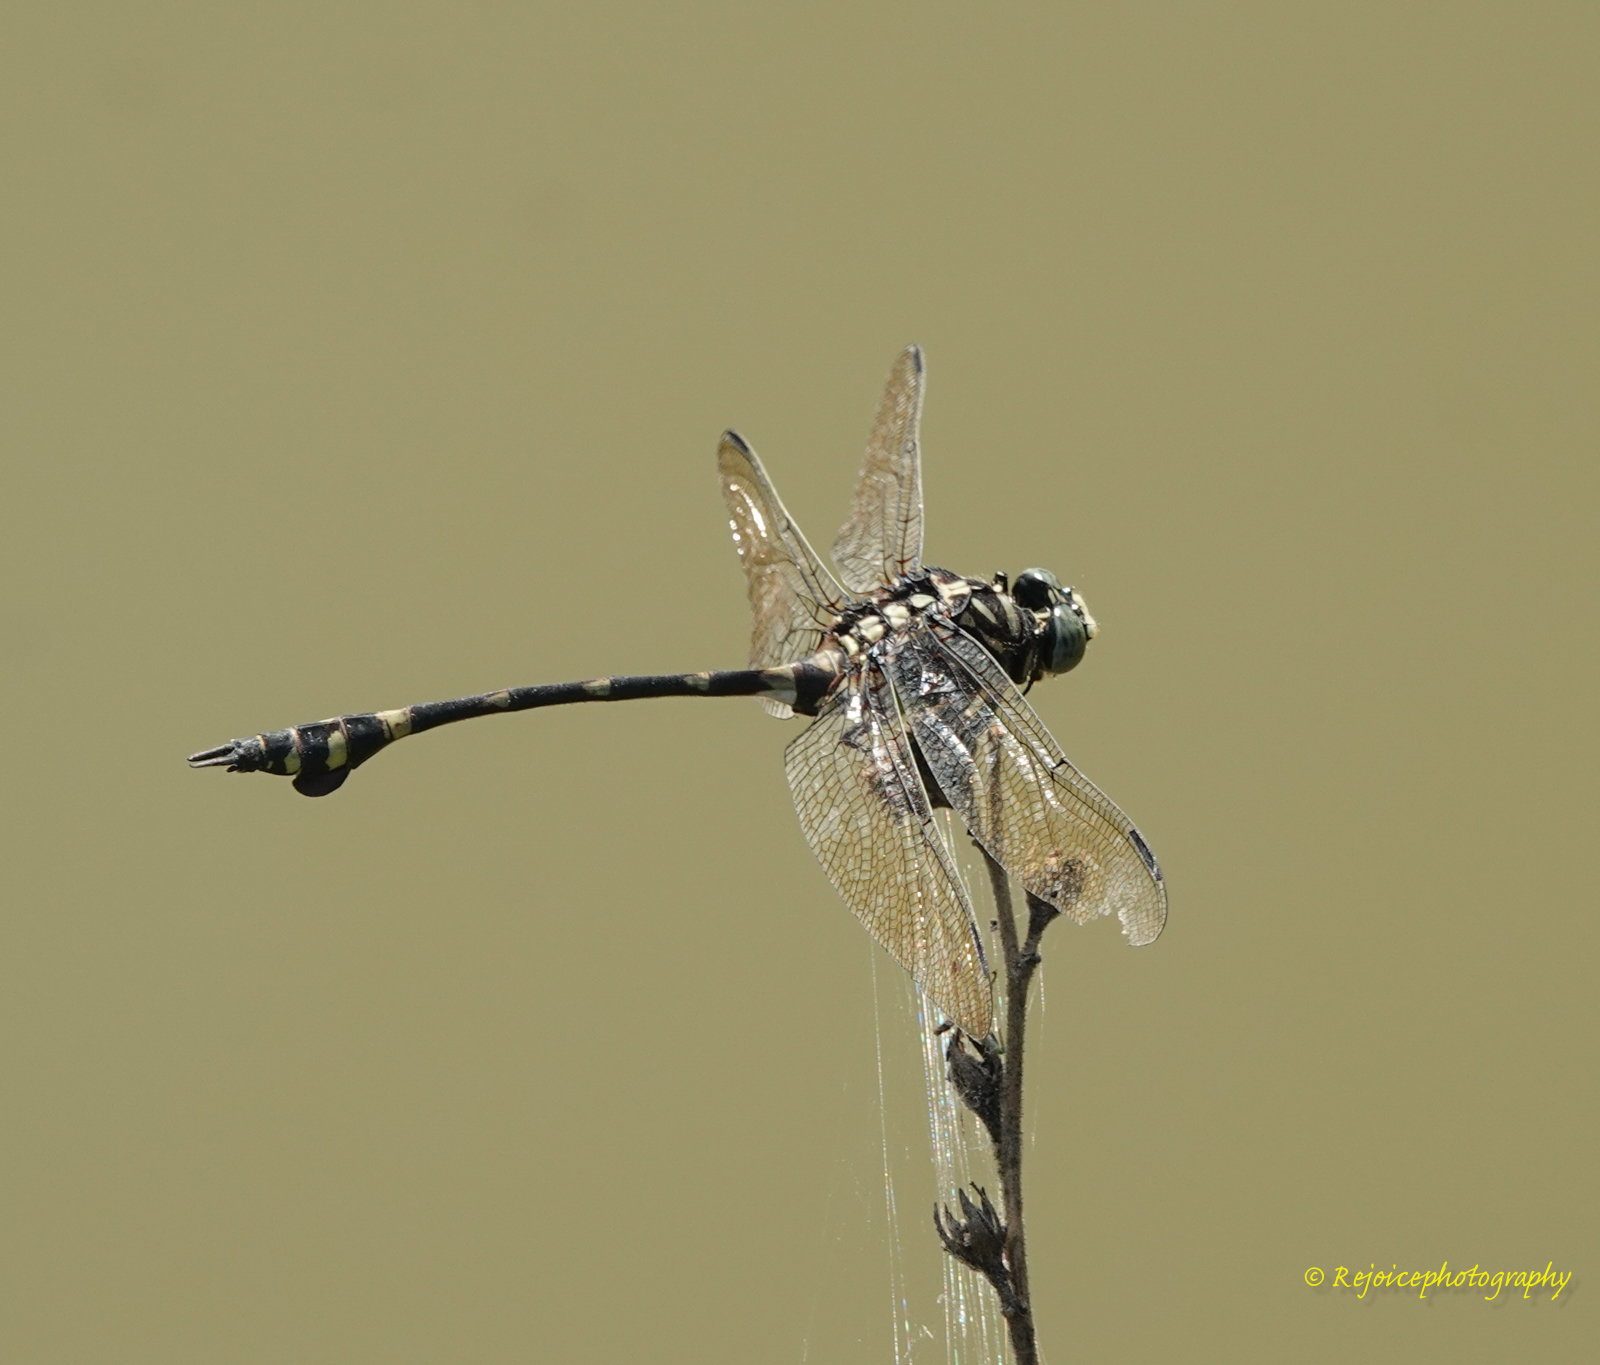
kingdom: Animalia
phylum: Arthropoda
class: Insecta
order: Odonata
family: Gomphidae
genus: Ictinogomphus
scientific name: Ictinogomphus rapax
